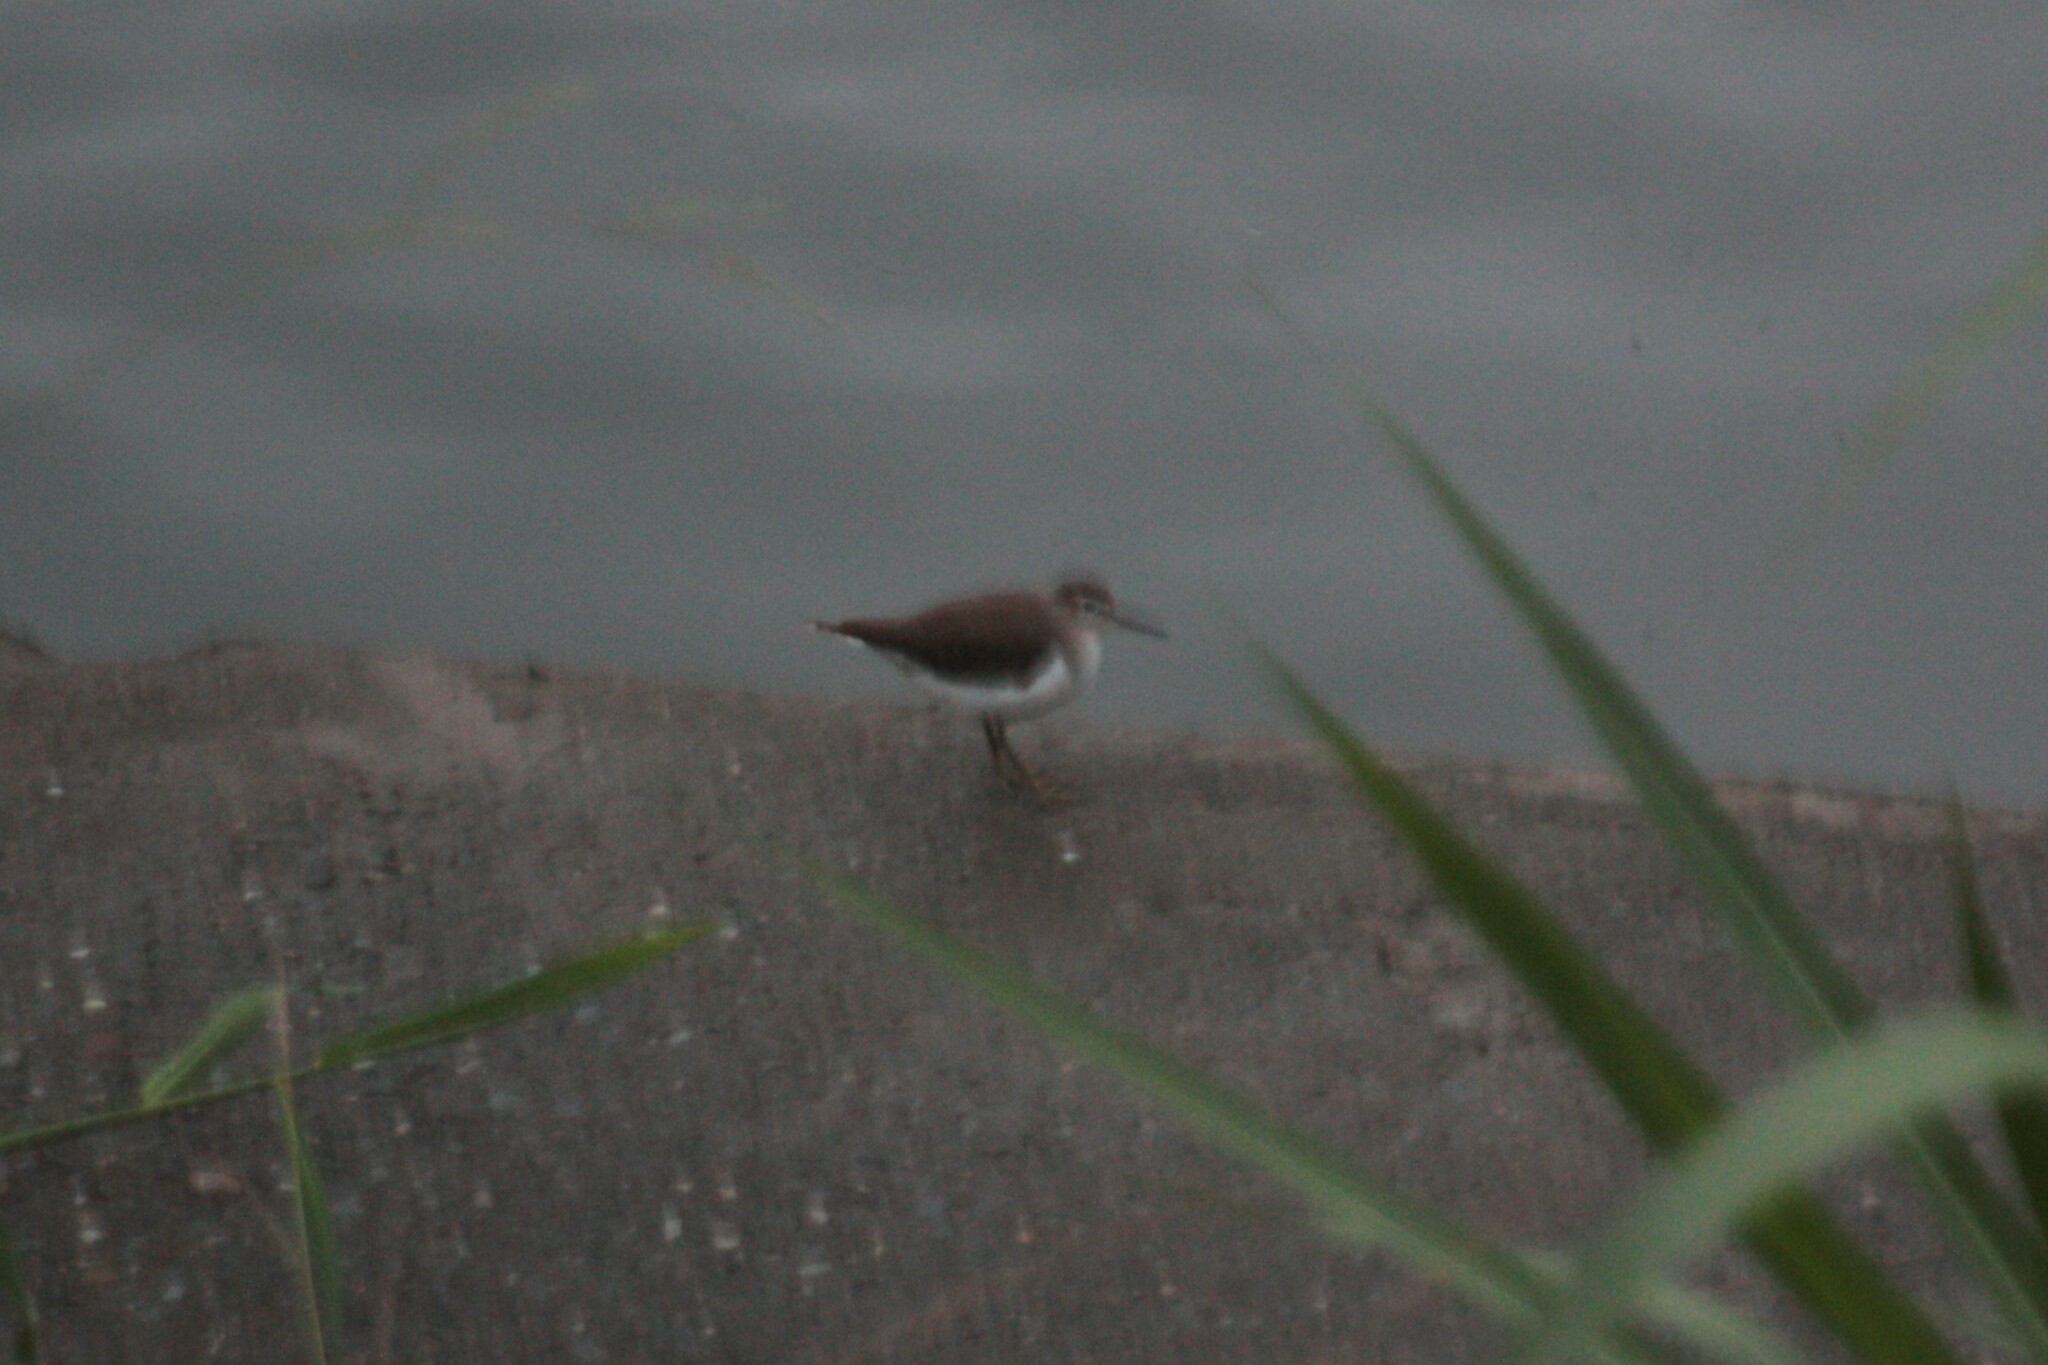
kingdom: Animalia
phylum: Chordata
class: Aves
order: Charadriiformes
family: Scolopacidae
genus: Actitis
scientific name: Actitis hypoleucos
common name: Common sandpiper
